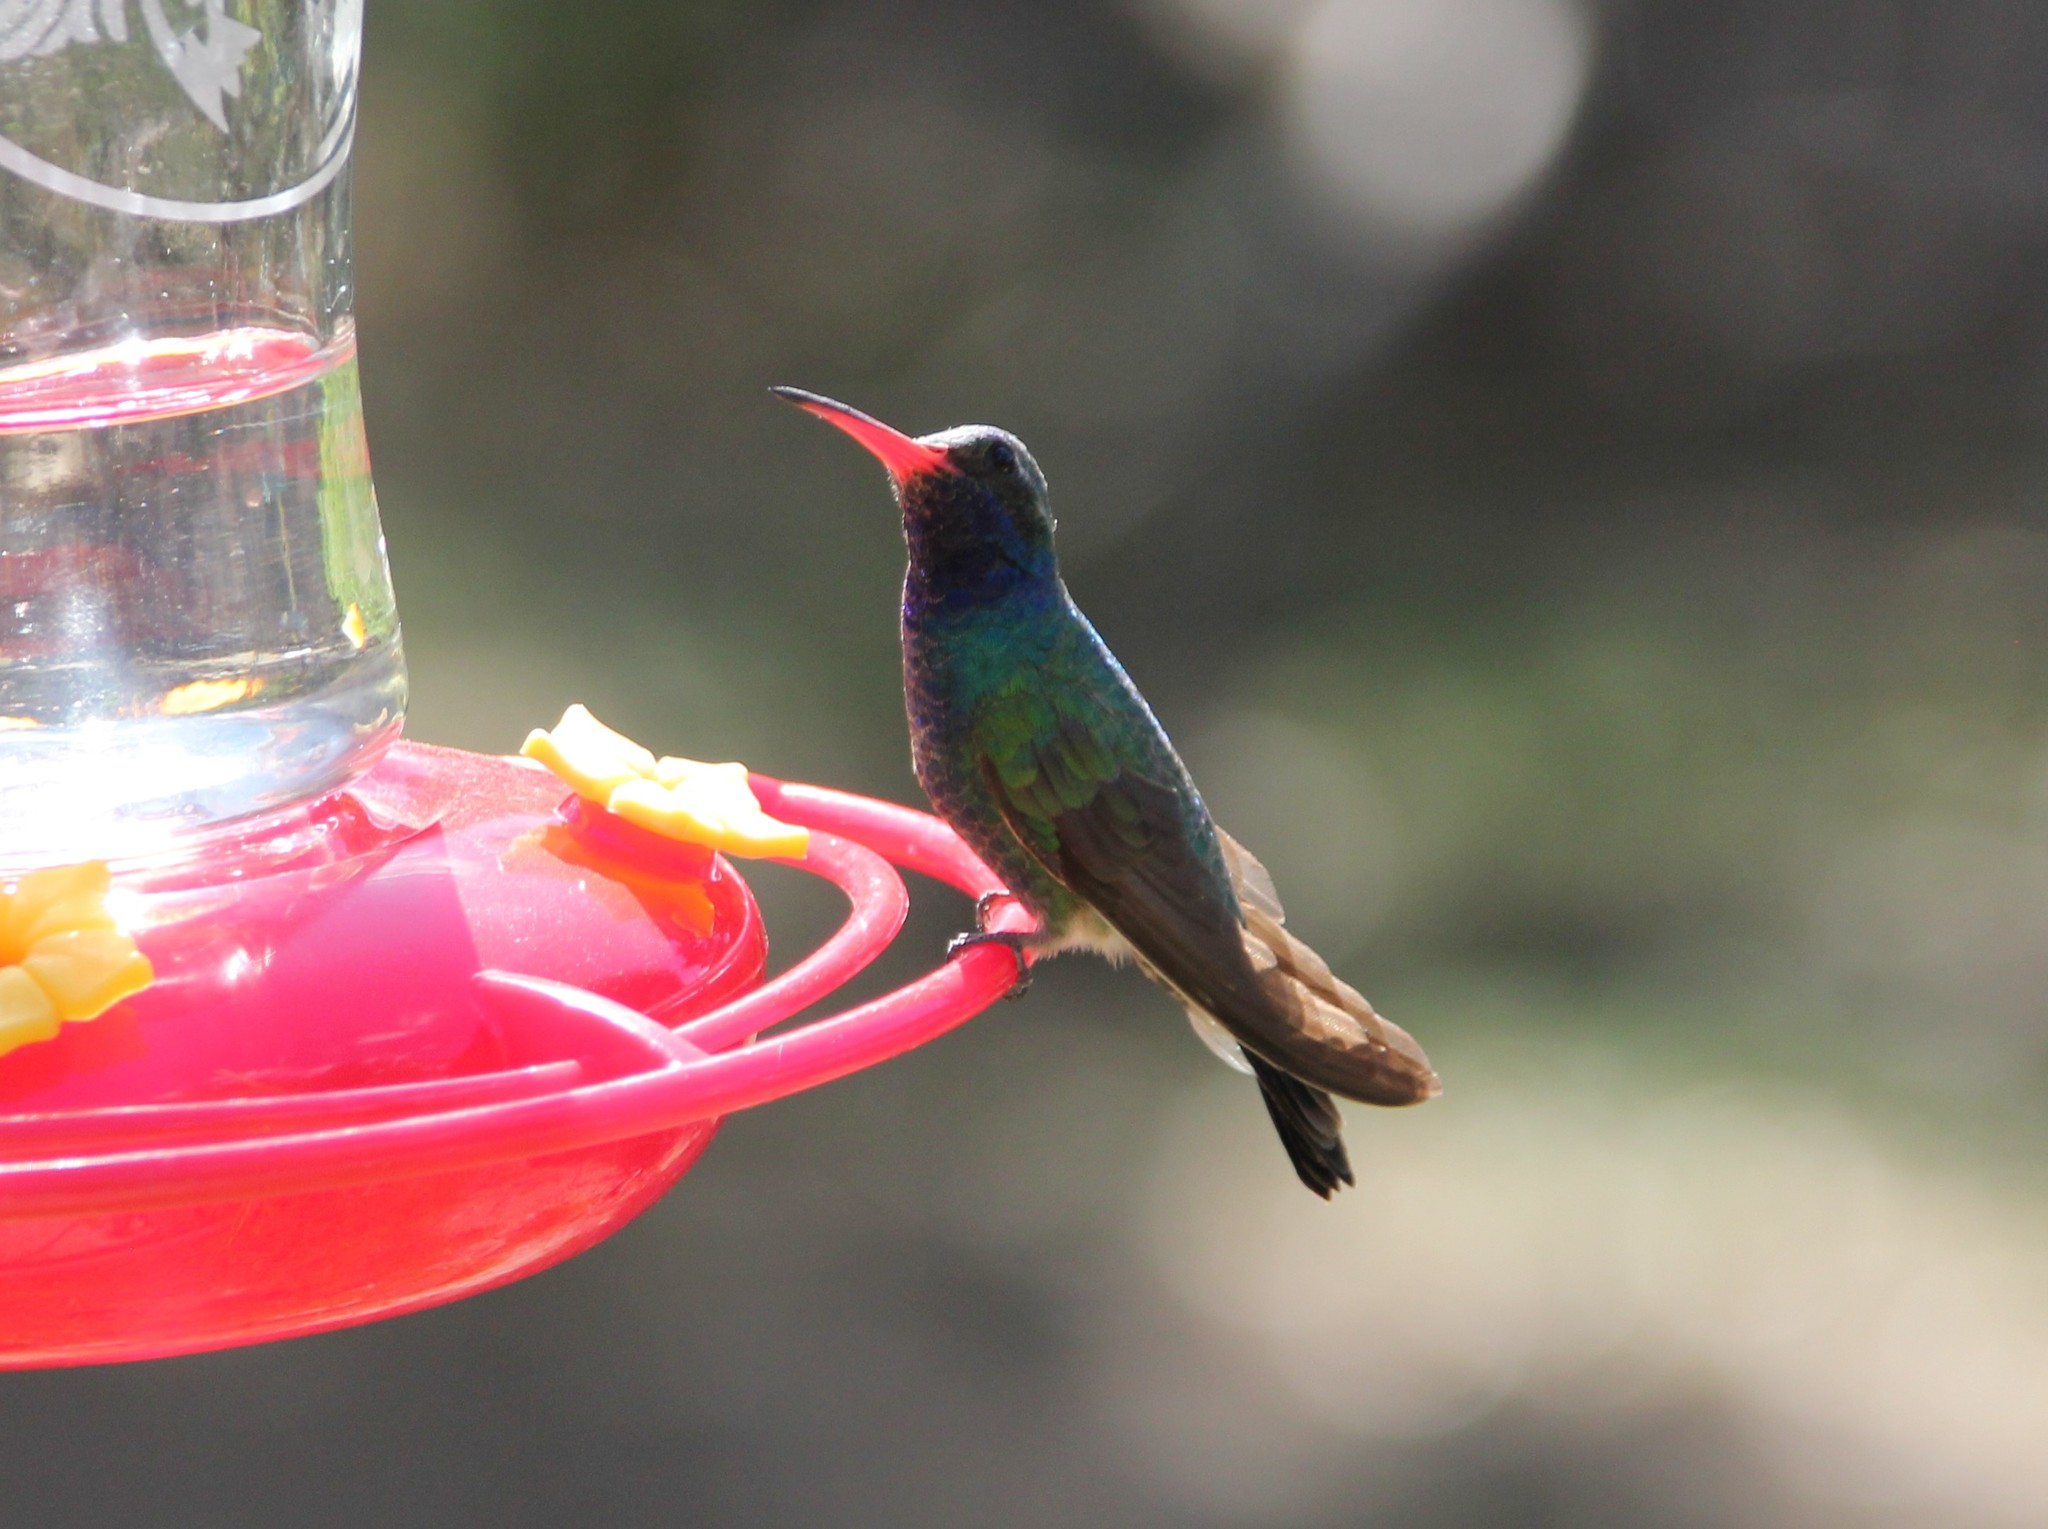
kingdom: Animalia
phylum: Chordata
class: Aves
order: Apodiformes
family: Trochilidae
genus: Cynanthus
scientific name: Cynanthus latirostris
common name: Broad-billed hummingbird
